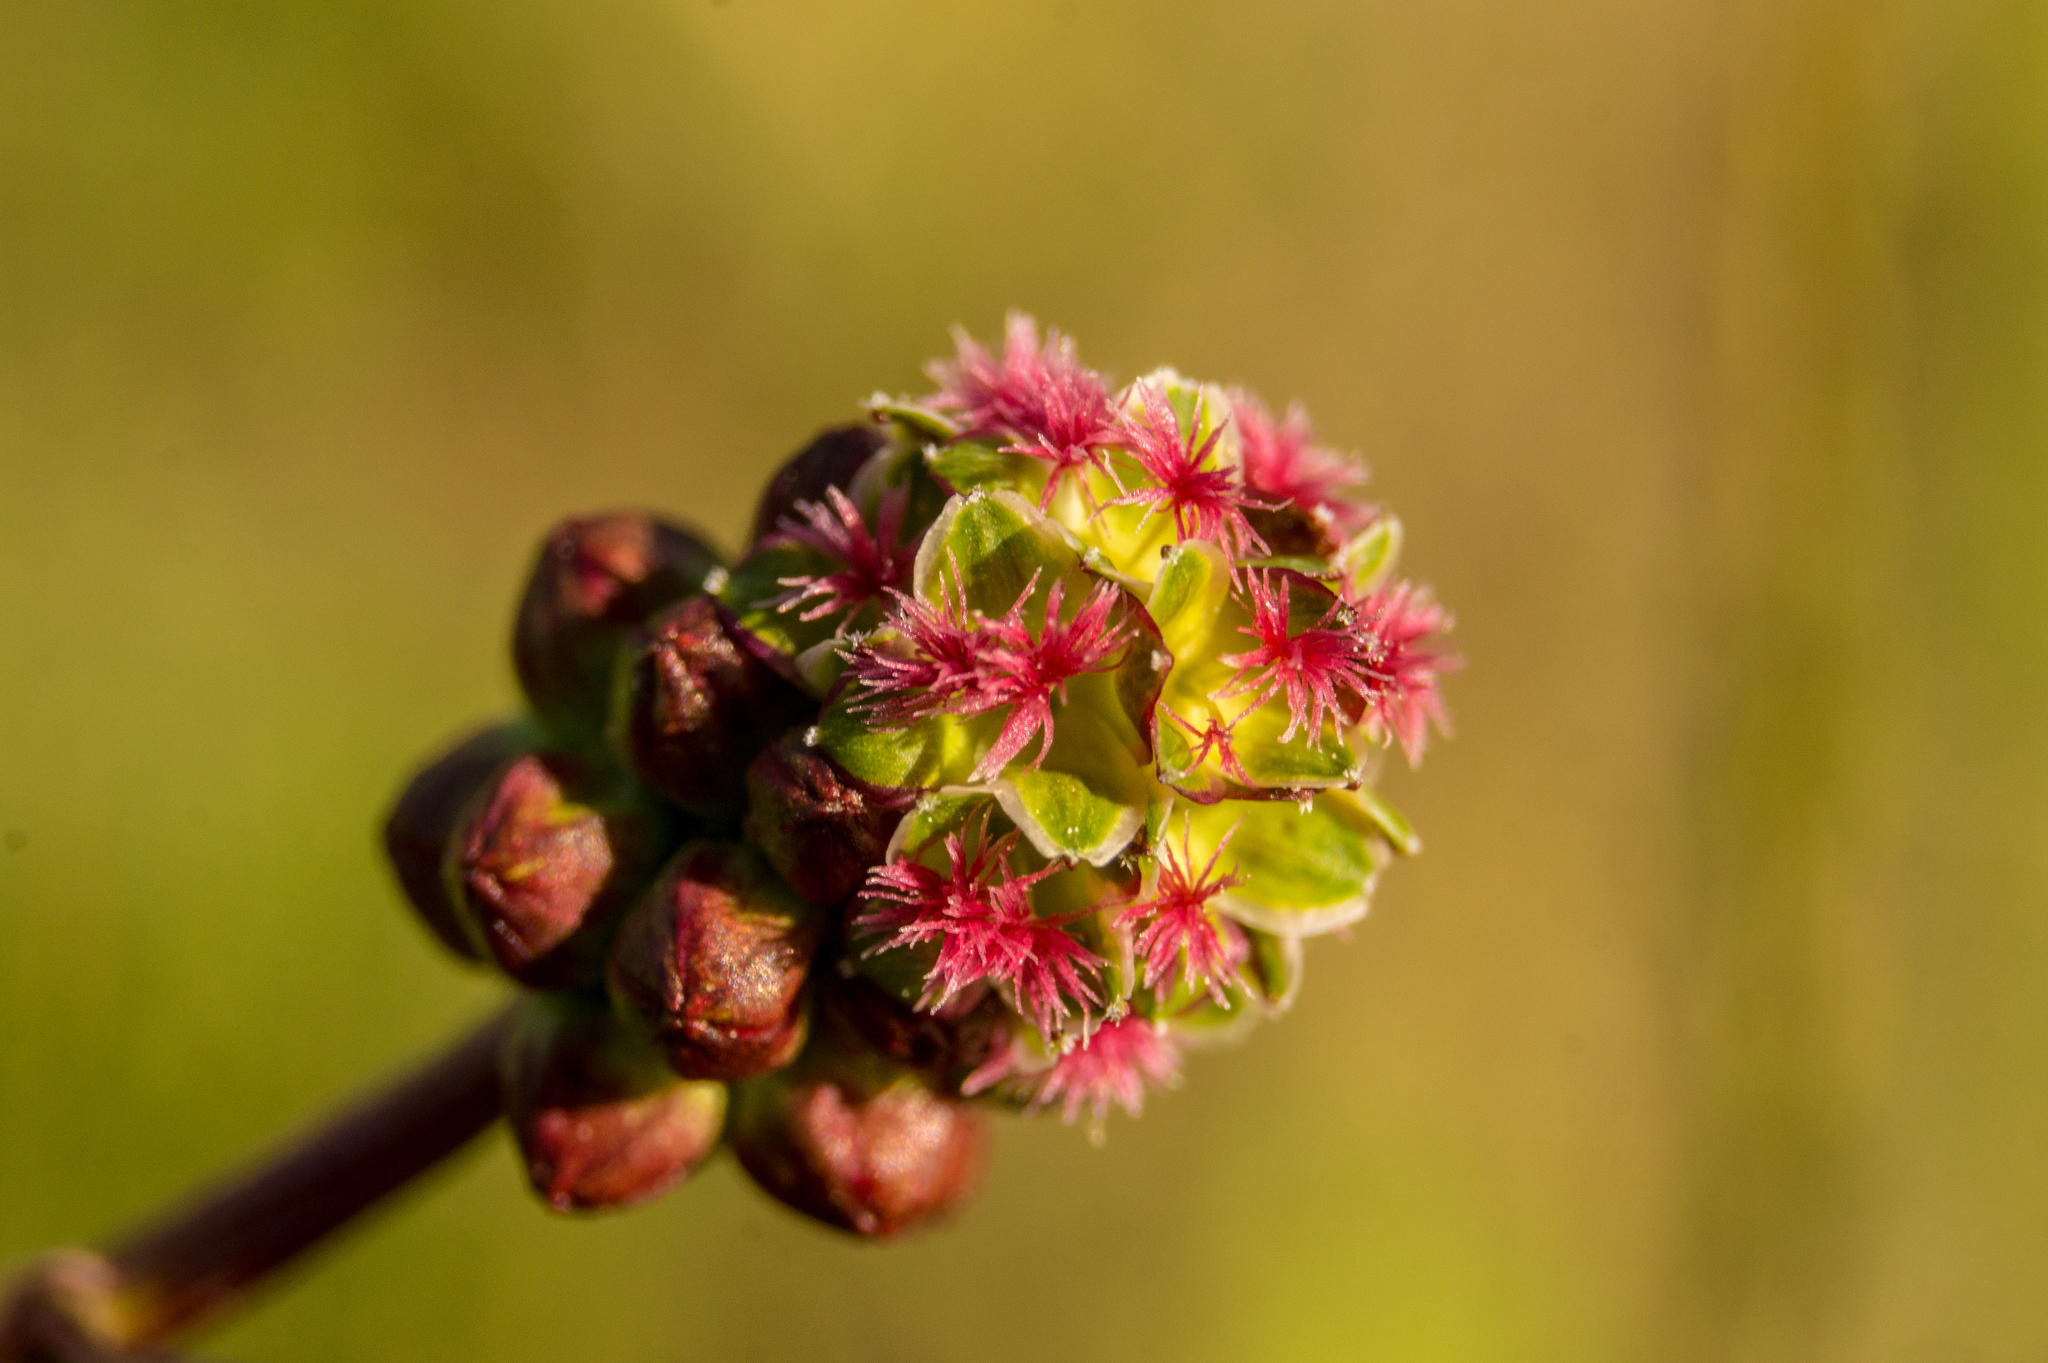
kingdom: Plantae
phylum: Tracheophyta
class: Magnoliopsida
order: Rosales
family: Rosaceae
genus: Poterium
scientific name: Poterium sanguisorba
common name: Salad burnet
